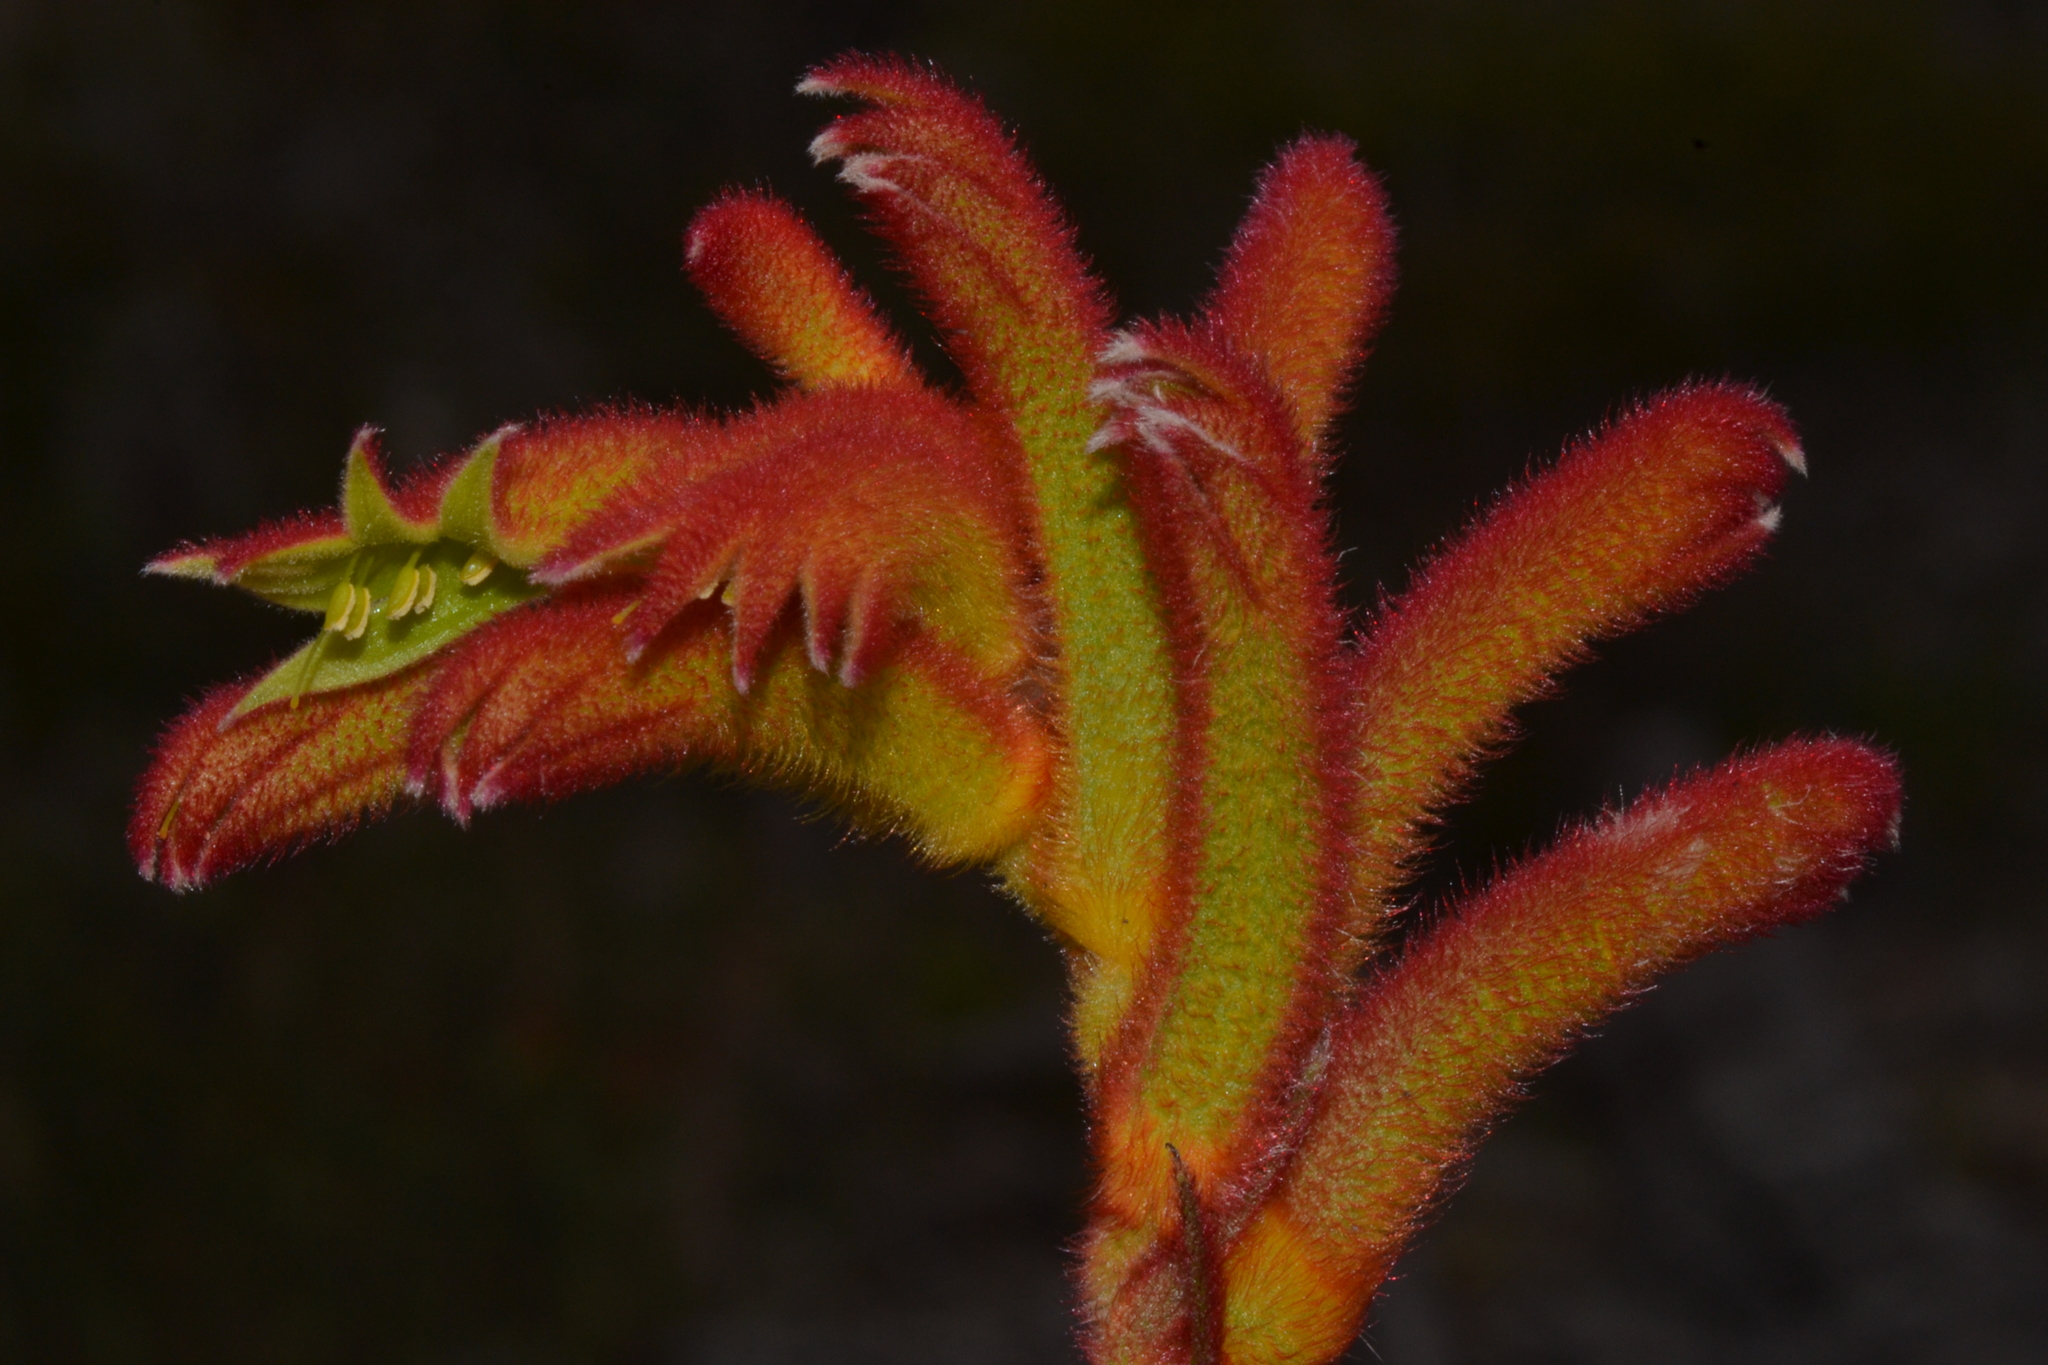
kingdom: Plantae
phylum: Tracheophyta
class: Liliopsida
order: Commelinales
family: Haemodoraceae
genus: Anigozanthos
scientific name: Anigozanthos humilis
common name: Cat's-paw
